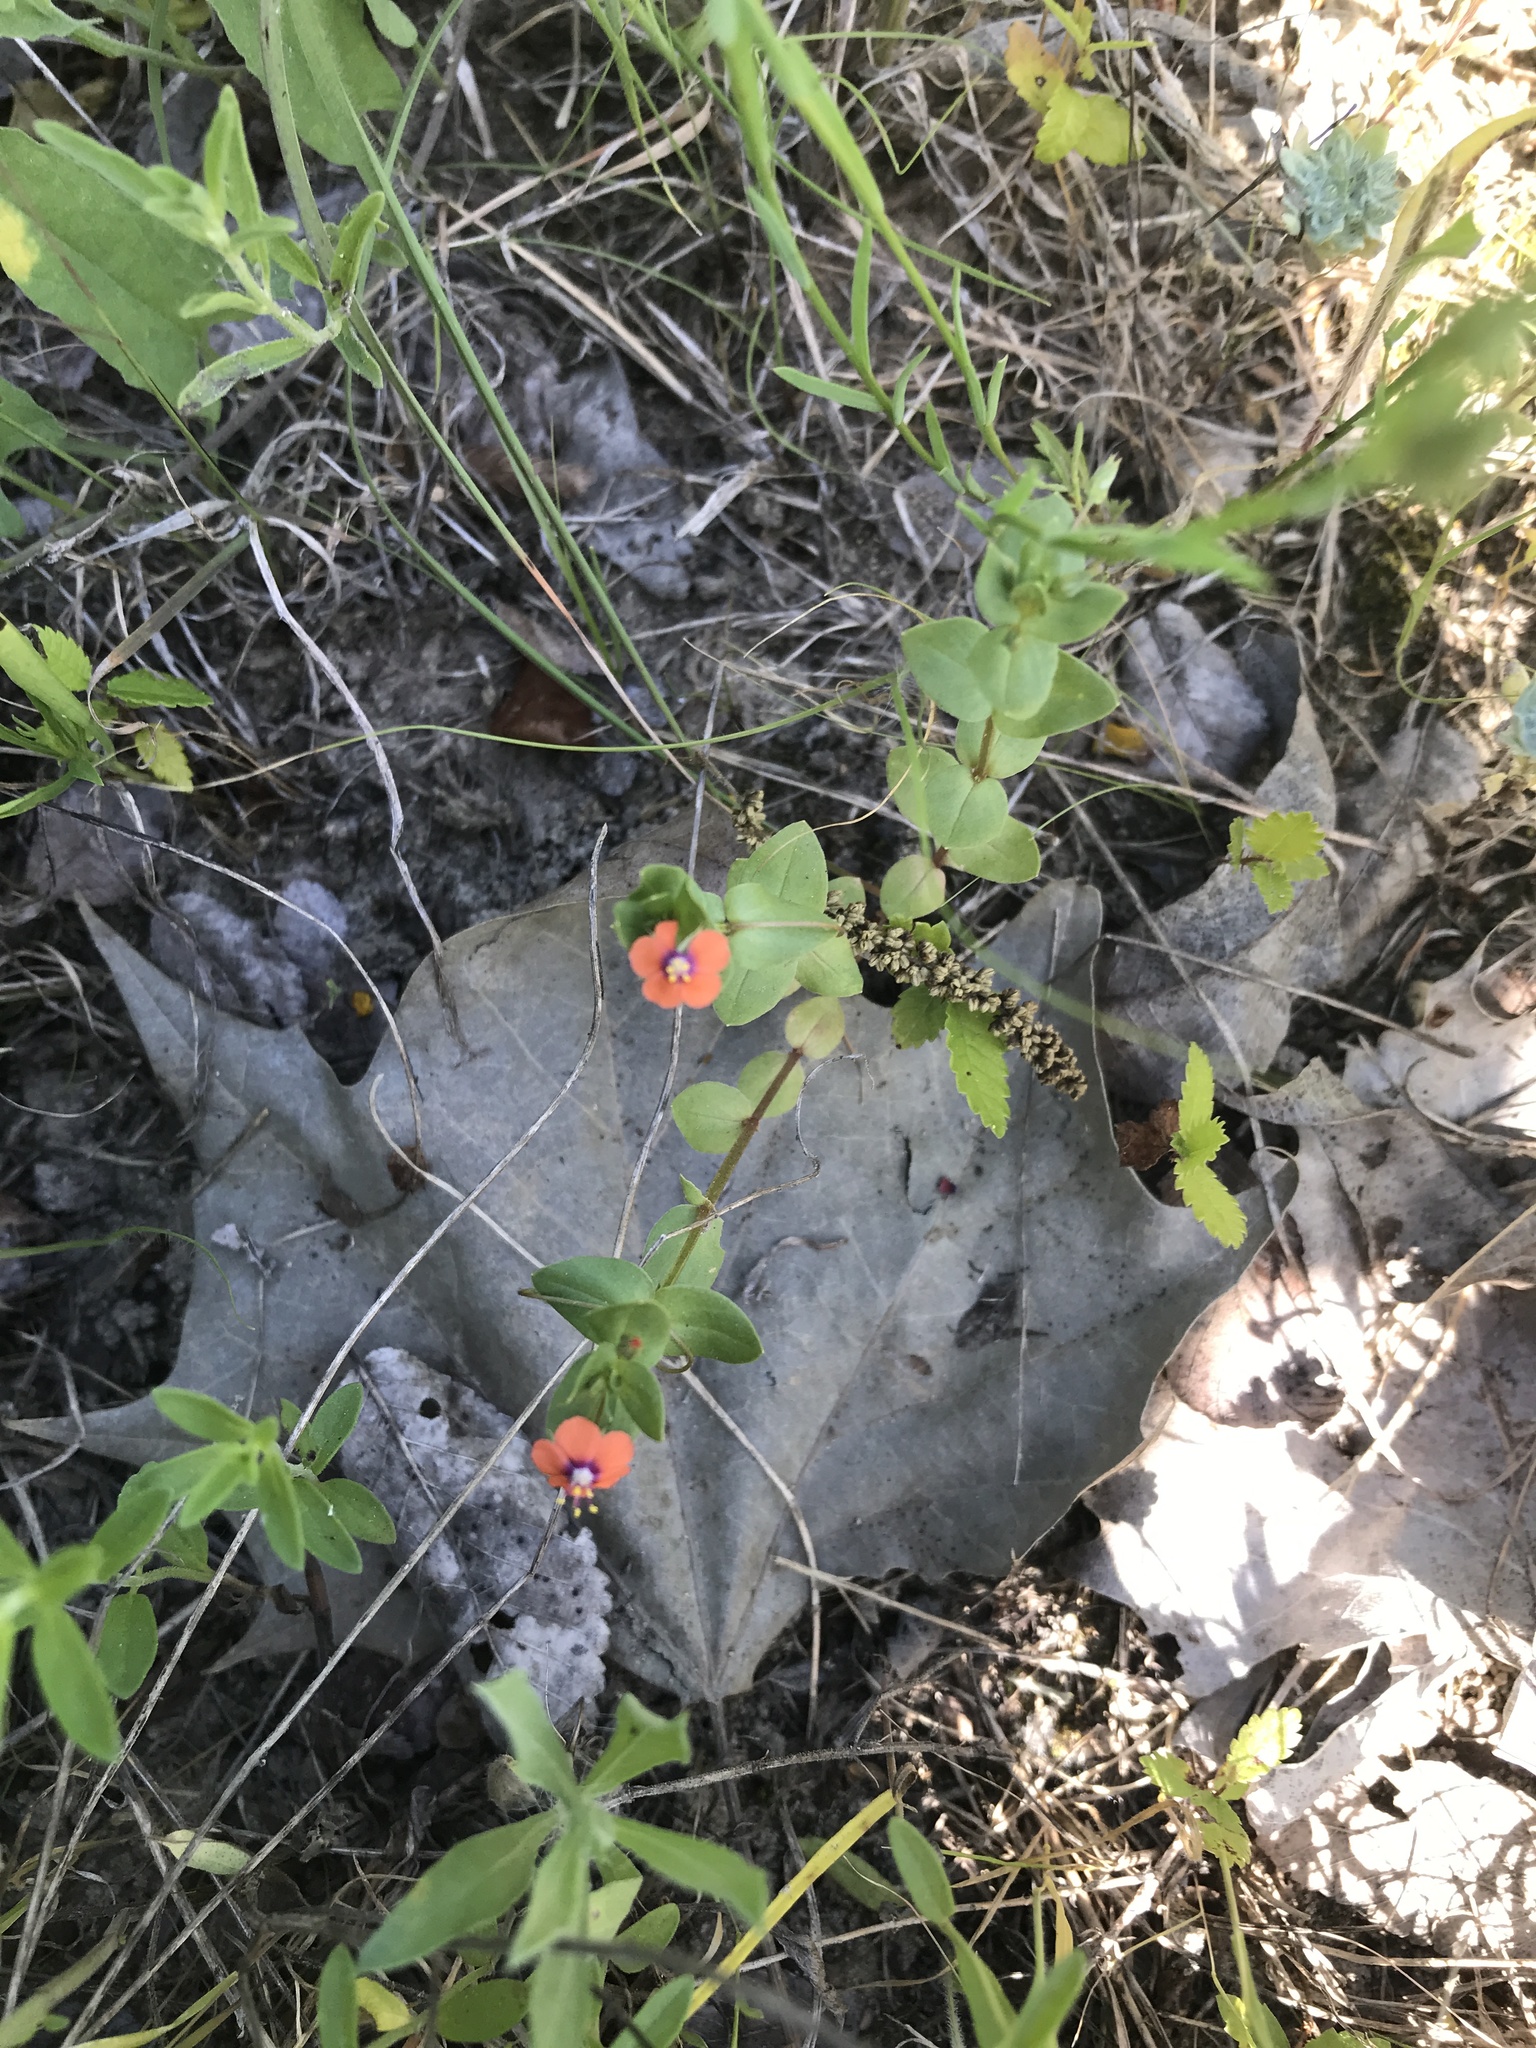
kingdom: Plantae
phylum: Tracheophyta
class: Magnoliopsida
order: Ericales
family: Primulaceae
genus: Lysimachia
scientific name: Lysimachia arvensis
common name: Scarlet pimpernel
